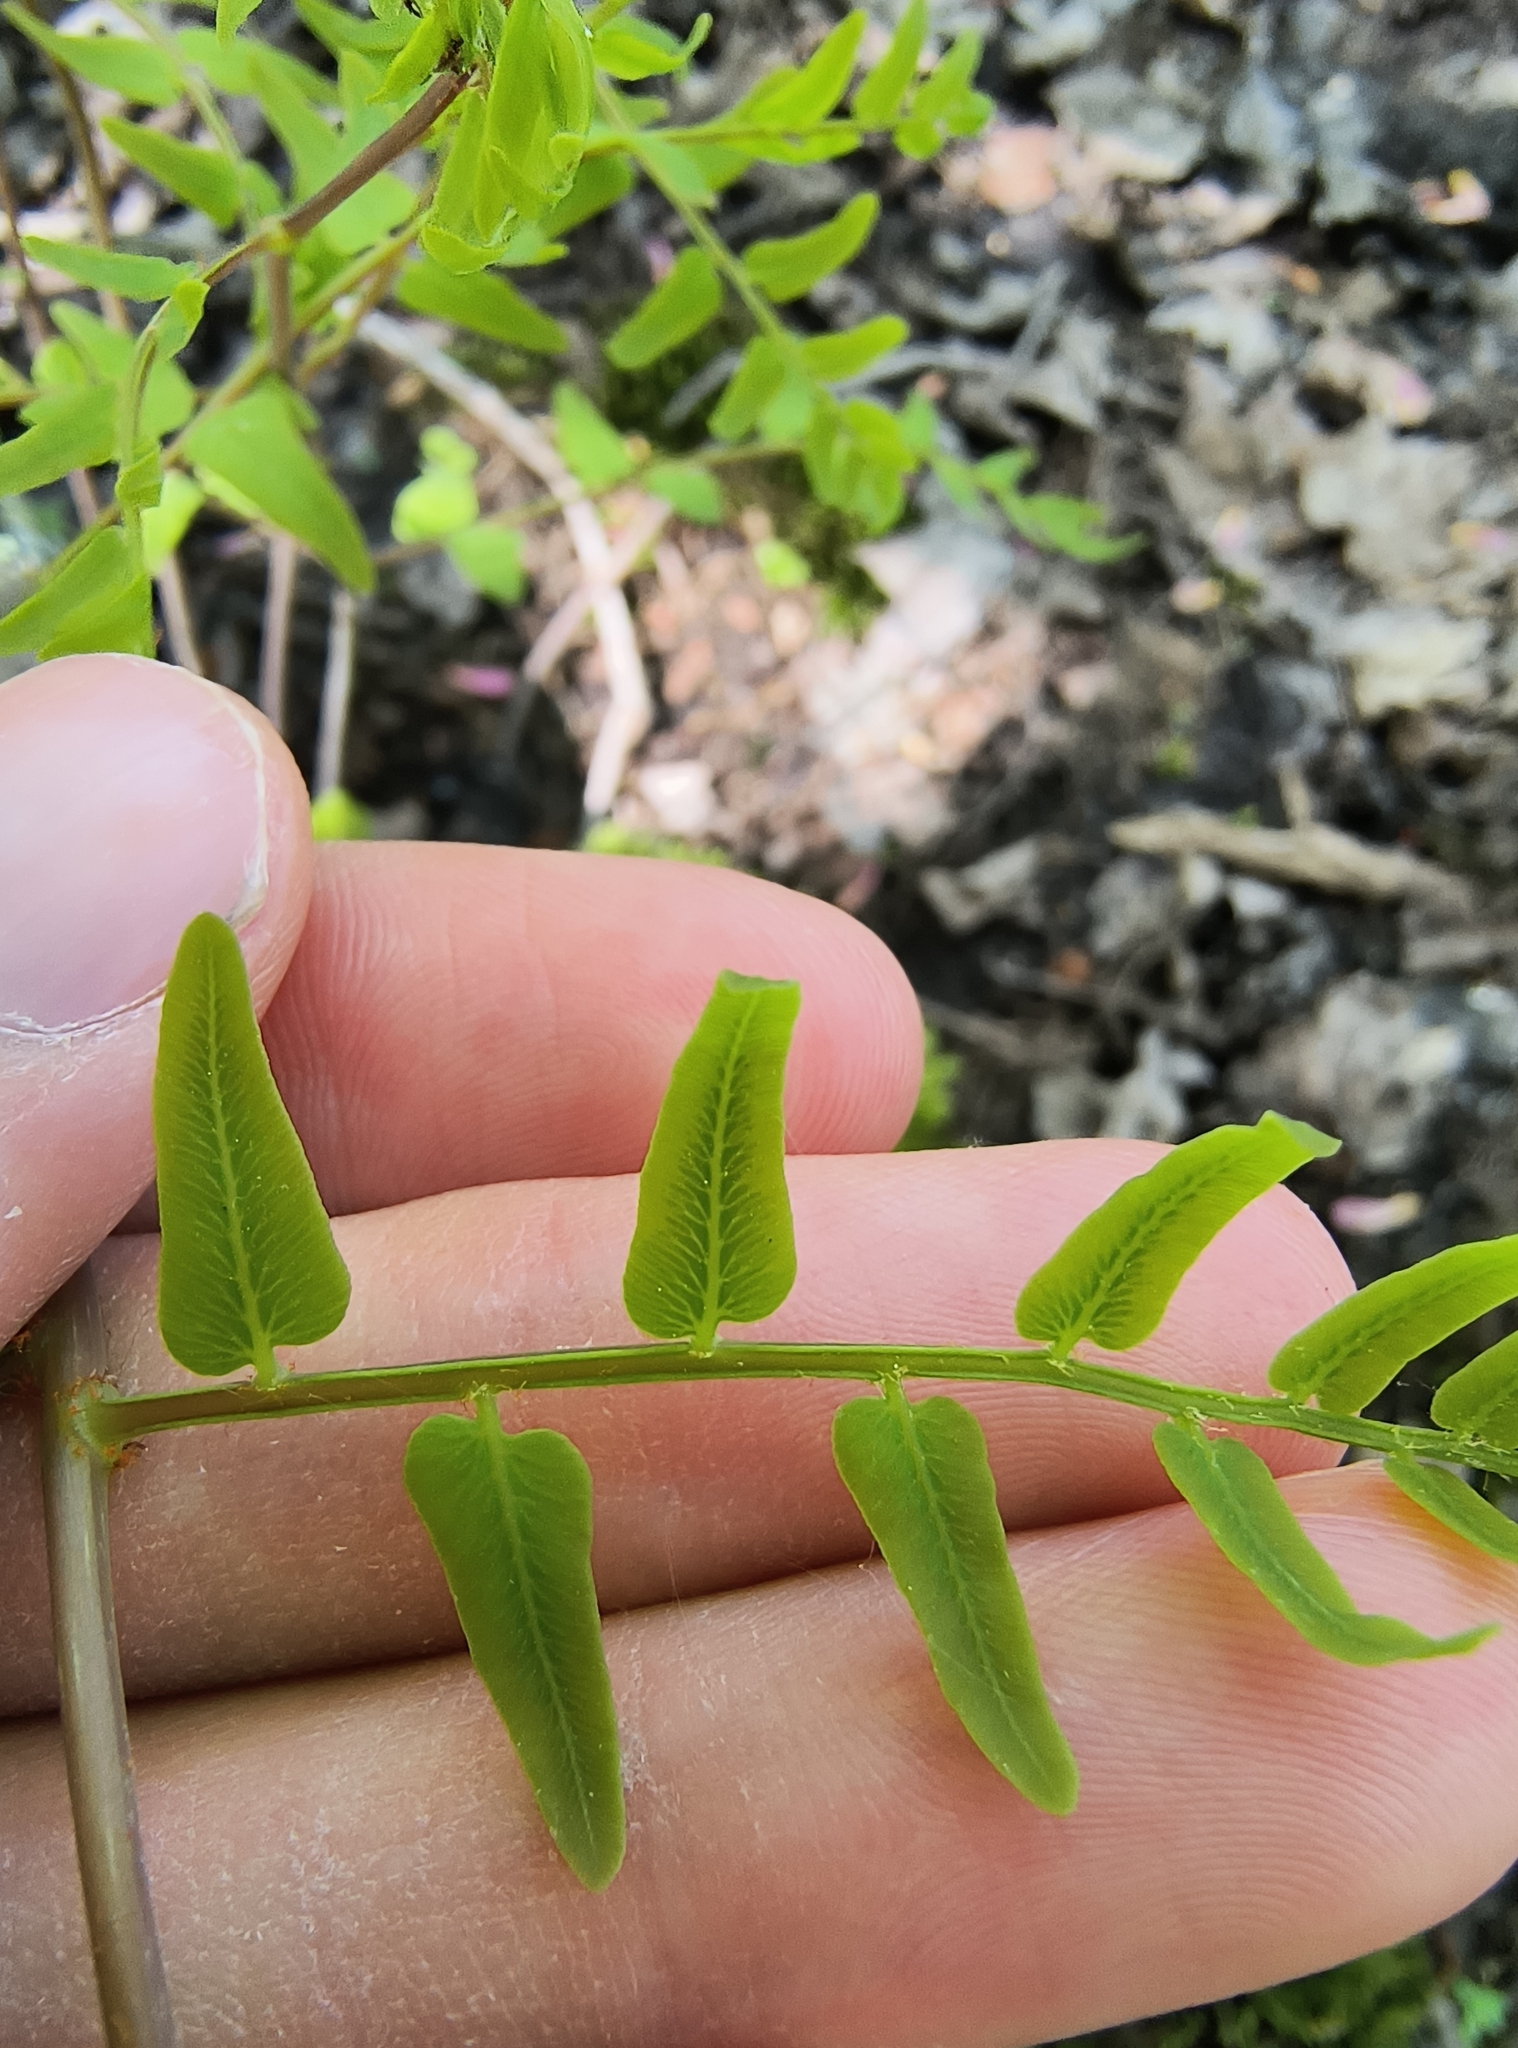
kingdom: Plantae
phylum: Tracheophyta
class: Polypodiopsida
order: Osmundales
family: Osmundaceae
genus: Osmunda
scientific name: Osmunda spectabilis
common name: American royal fern
